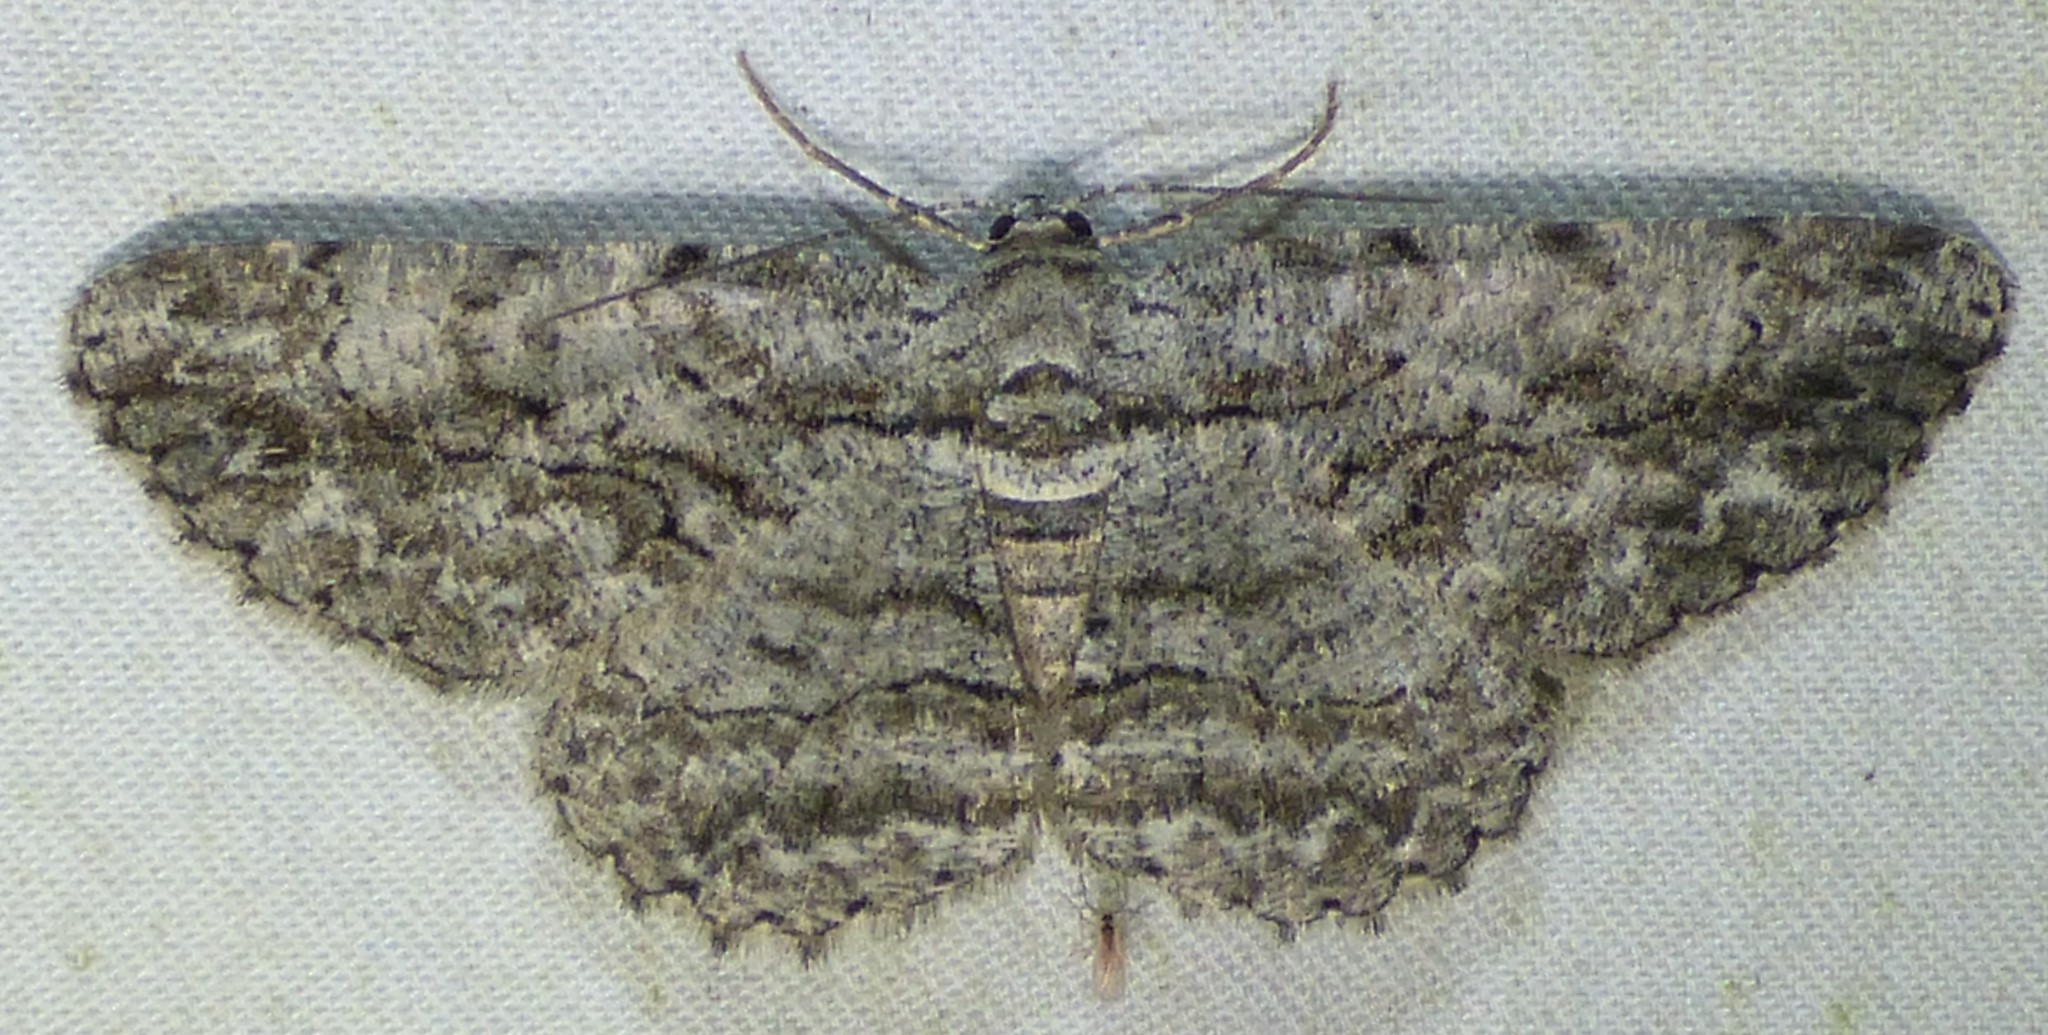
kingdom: Animalia
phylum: Arthropoda
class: Insecta
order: Lepidoptera
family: Geometridae
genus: Anavitrinella
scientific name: Anavitrinella pampinaria
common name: Common gray
